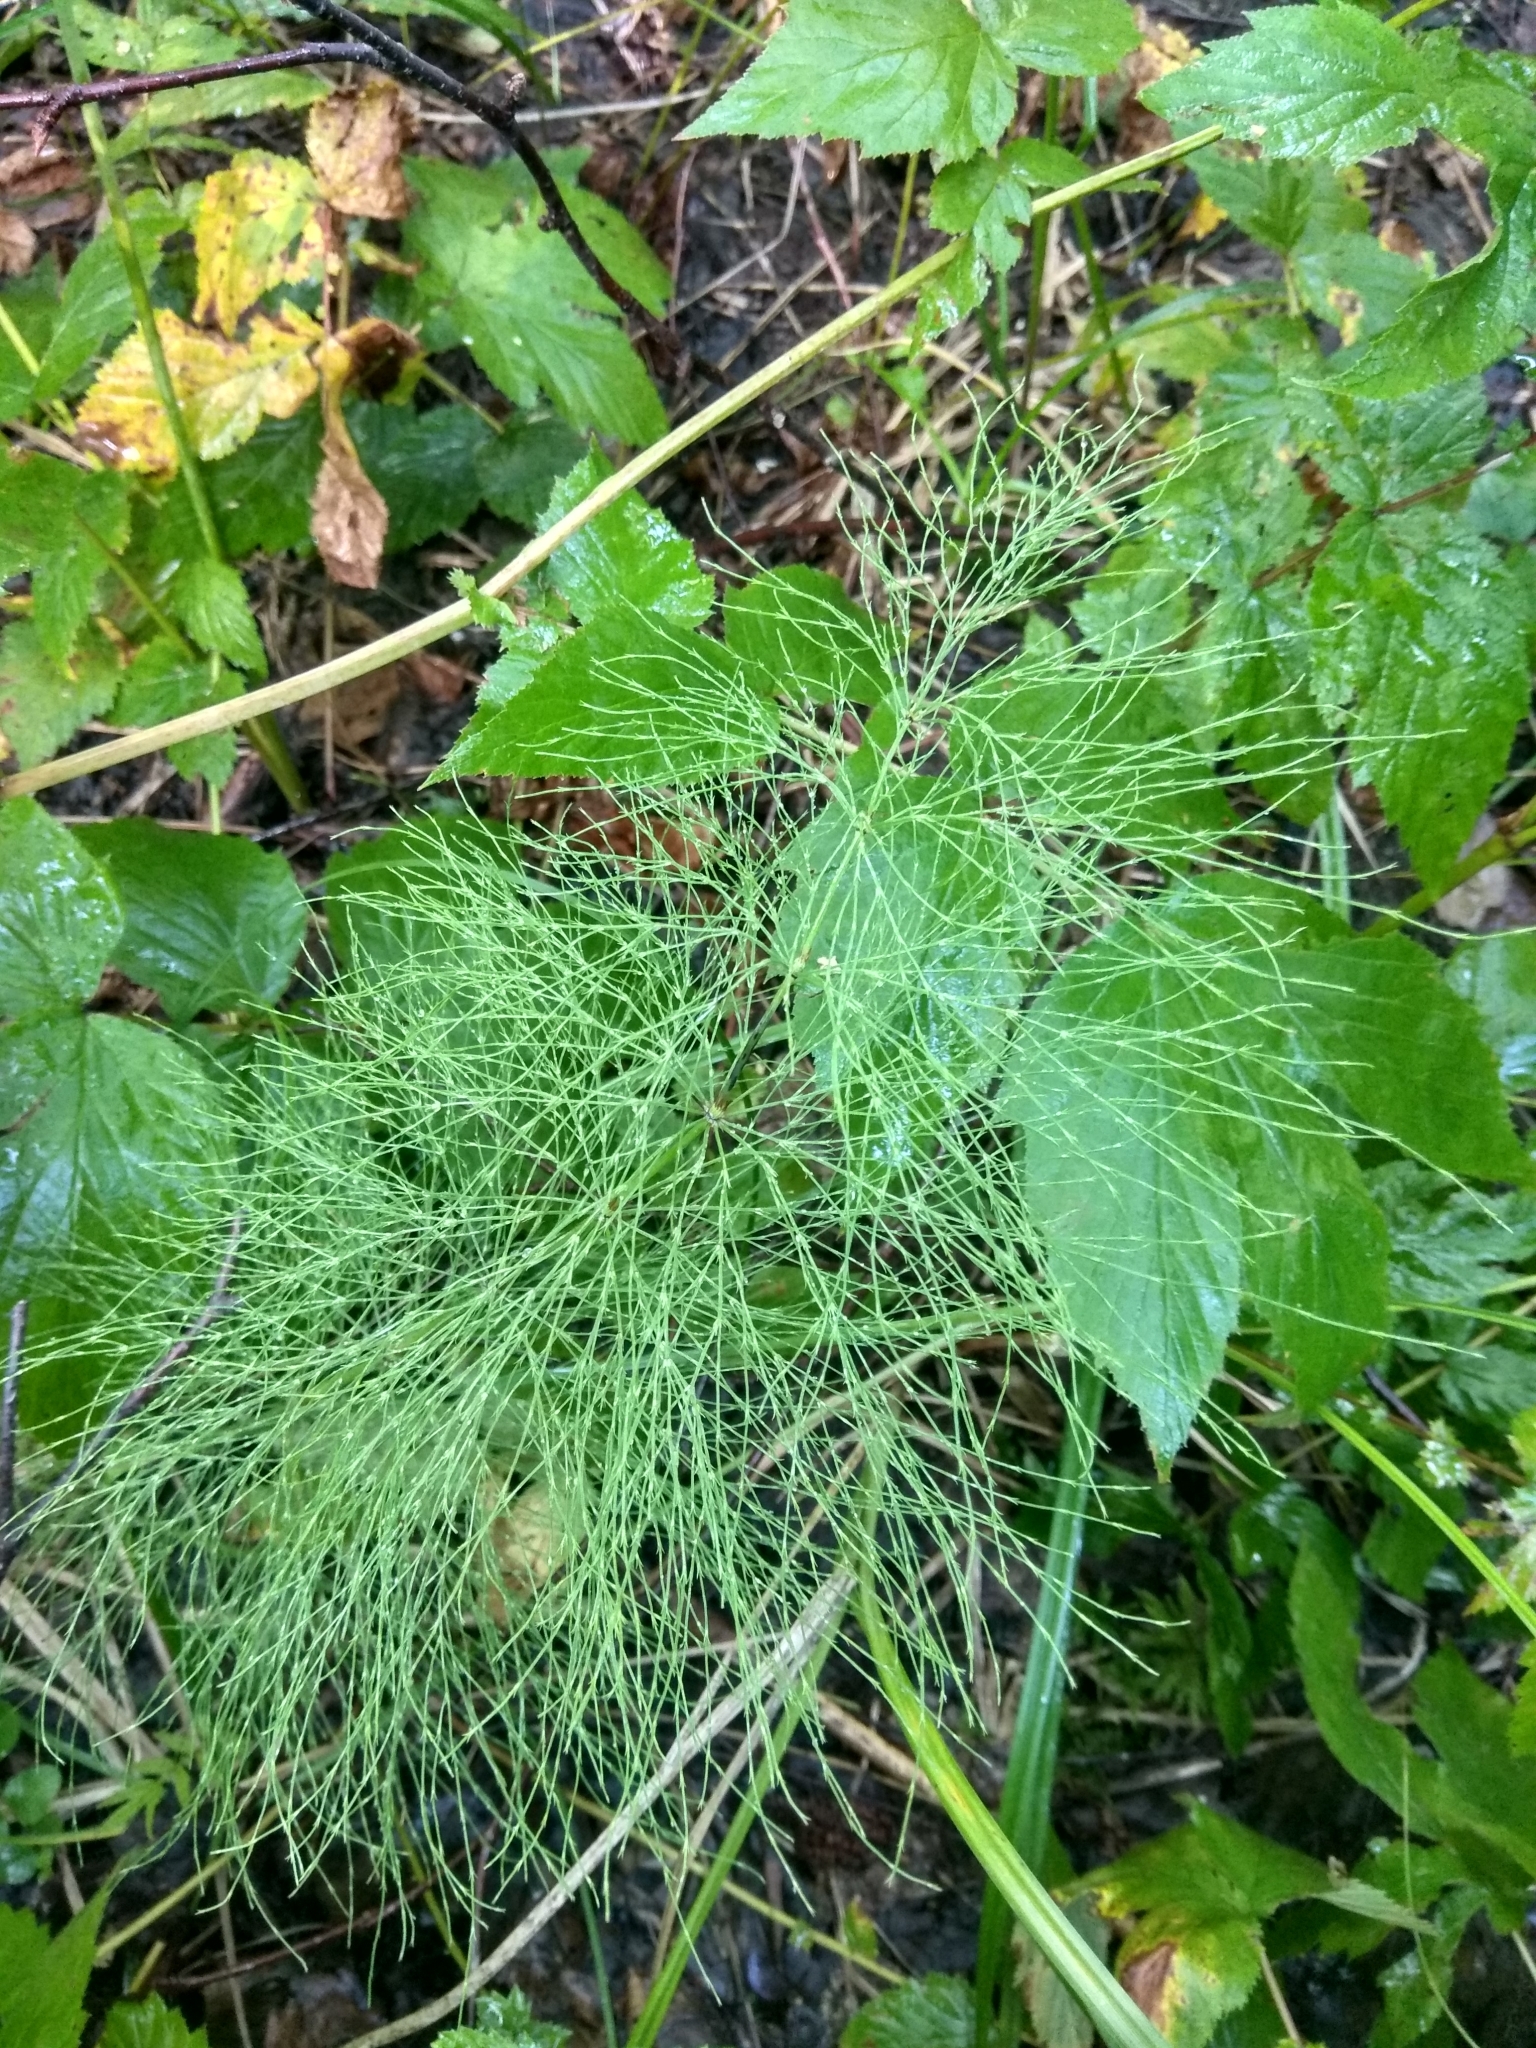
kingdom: Plantae
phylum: Tracheophyta
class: Polypodiopsida
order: Equisetales
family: Equisetaceae
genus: Equisetum
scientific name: Equisetum sylvaticum
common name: Wood horsetail
